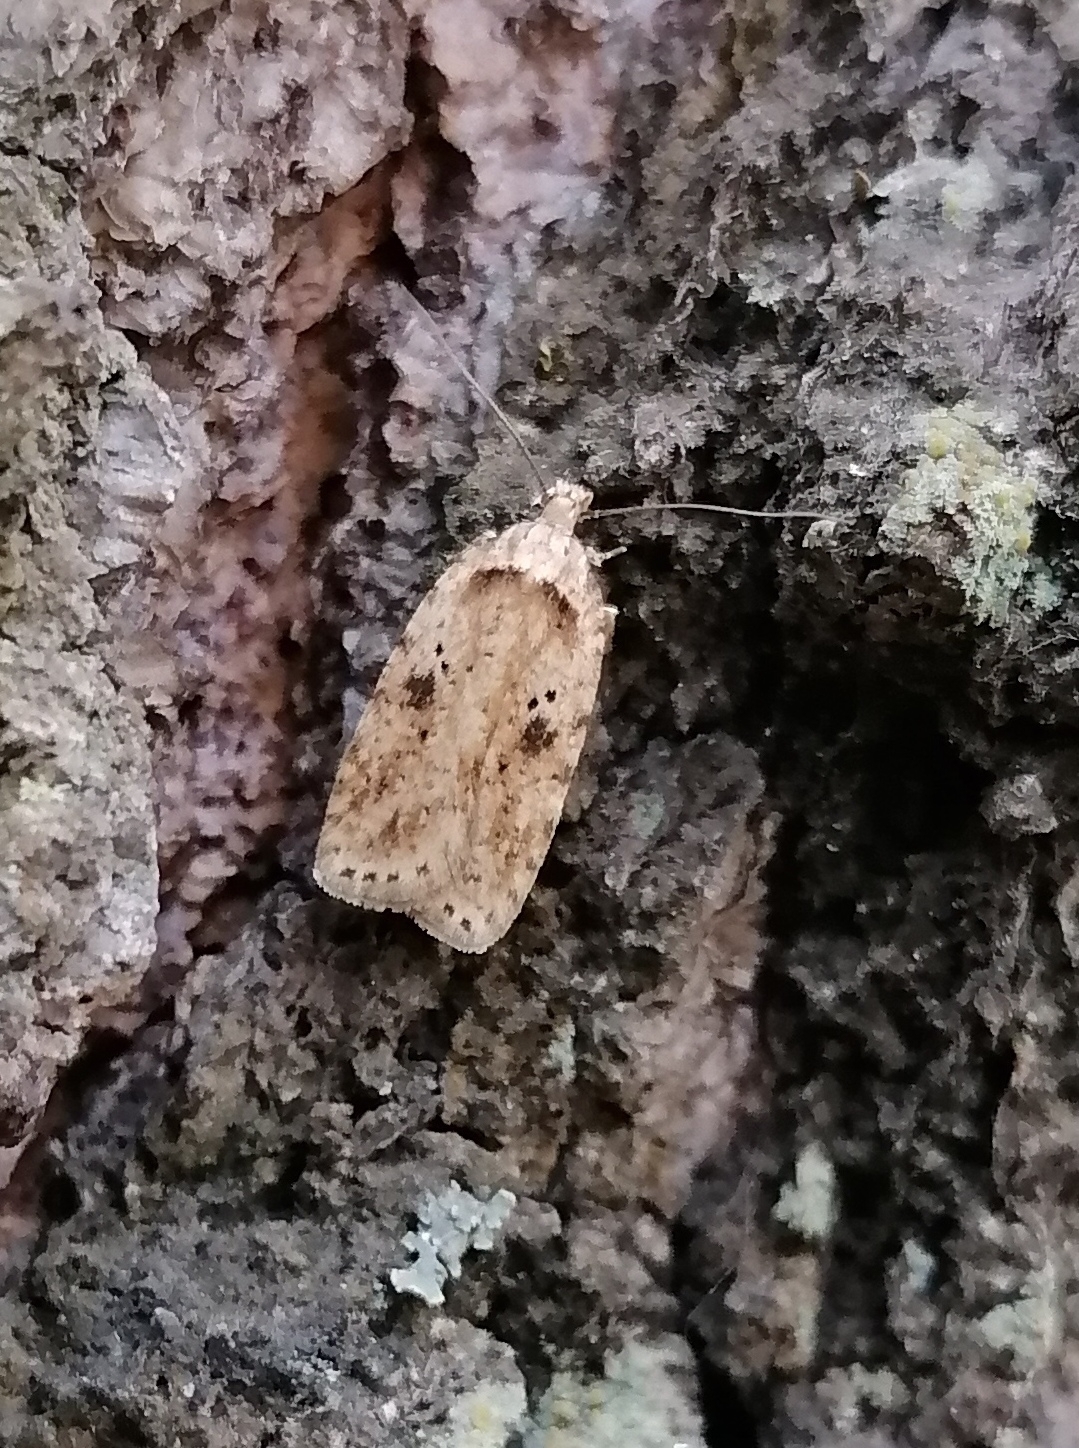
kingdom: Animalia
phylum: Arthropoda
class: Insecta
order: Lepidoptera
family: Depressariidae
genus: Agonopterix
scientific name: Agonopterix arenella
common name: Brindled flat-body
